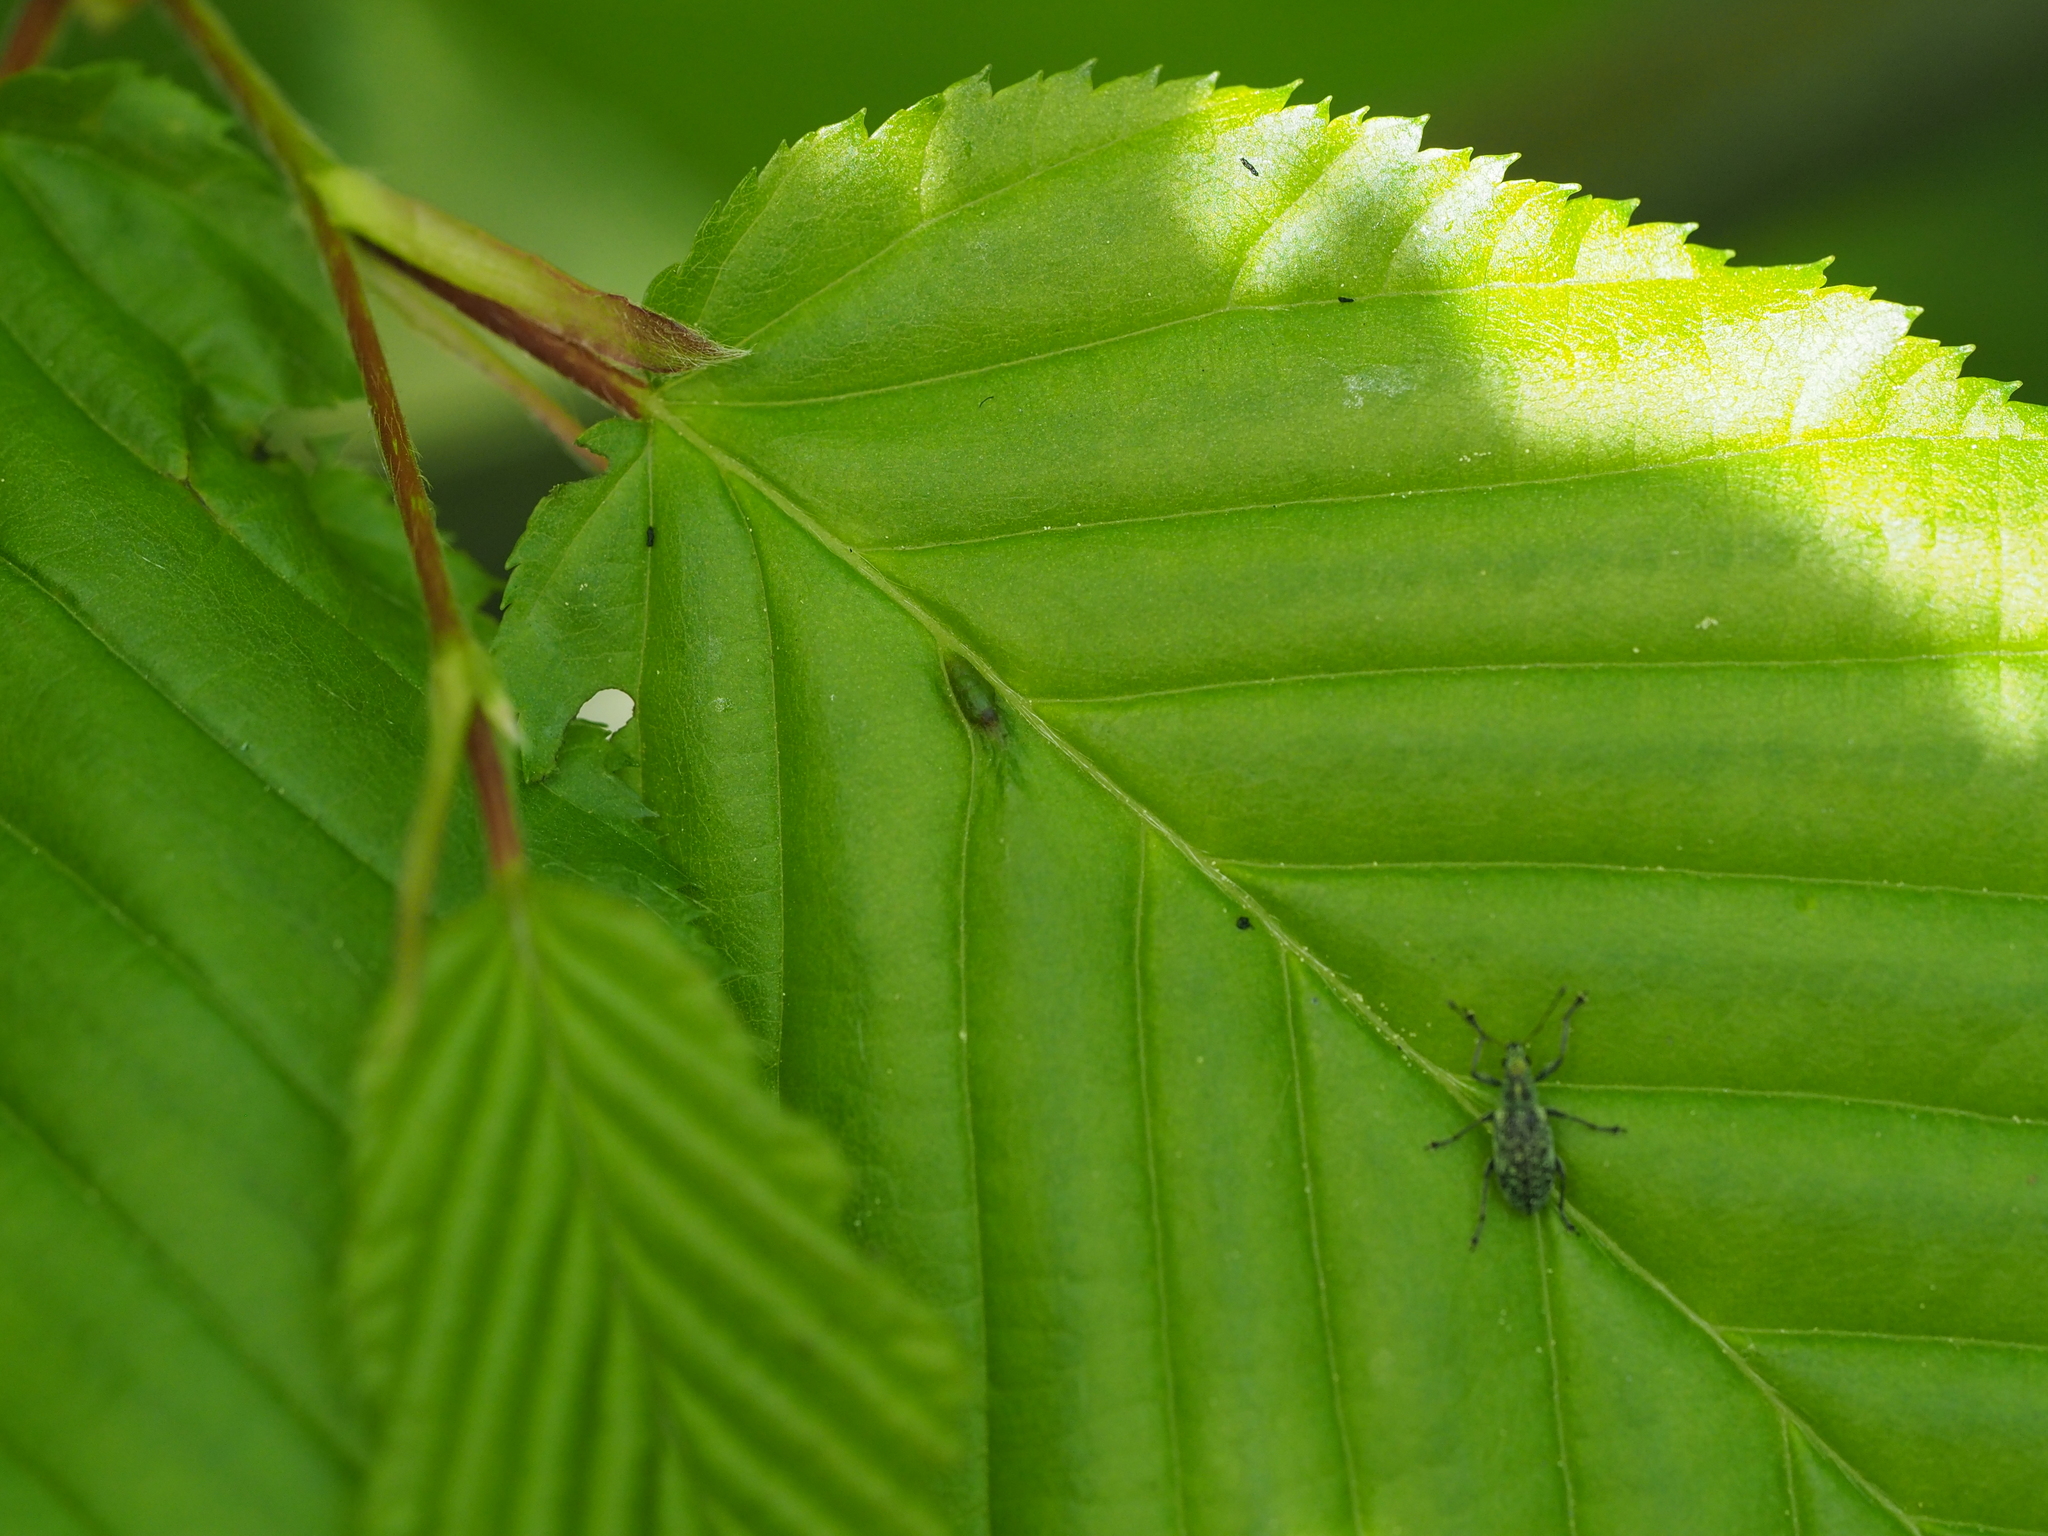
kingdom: Animalia
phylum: Arthropoda
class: Arachnida
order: Trombidiformes
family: Eriophyidae
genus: Aceria
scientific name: Aceria tenellus
